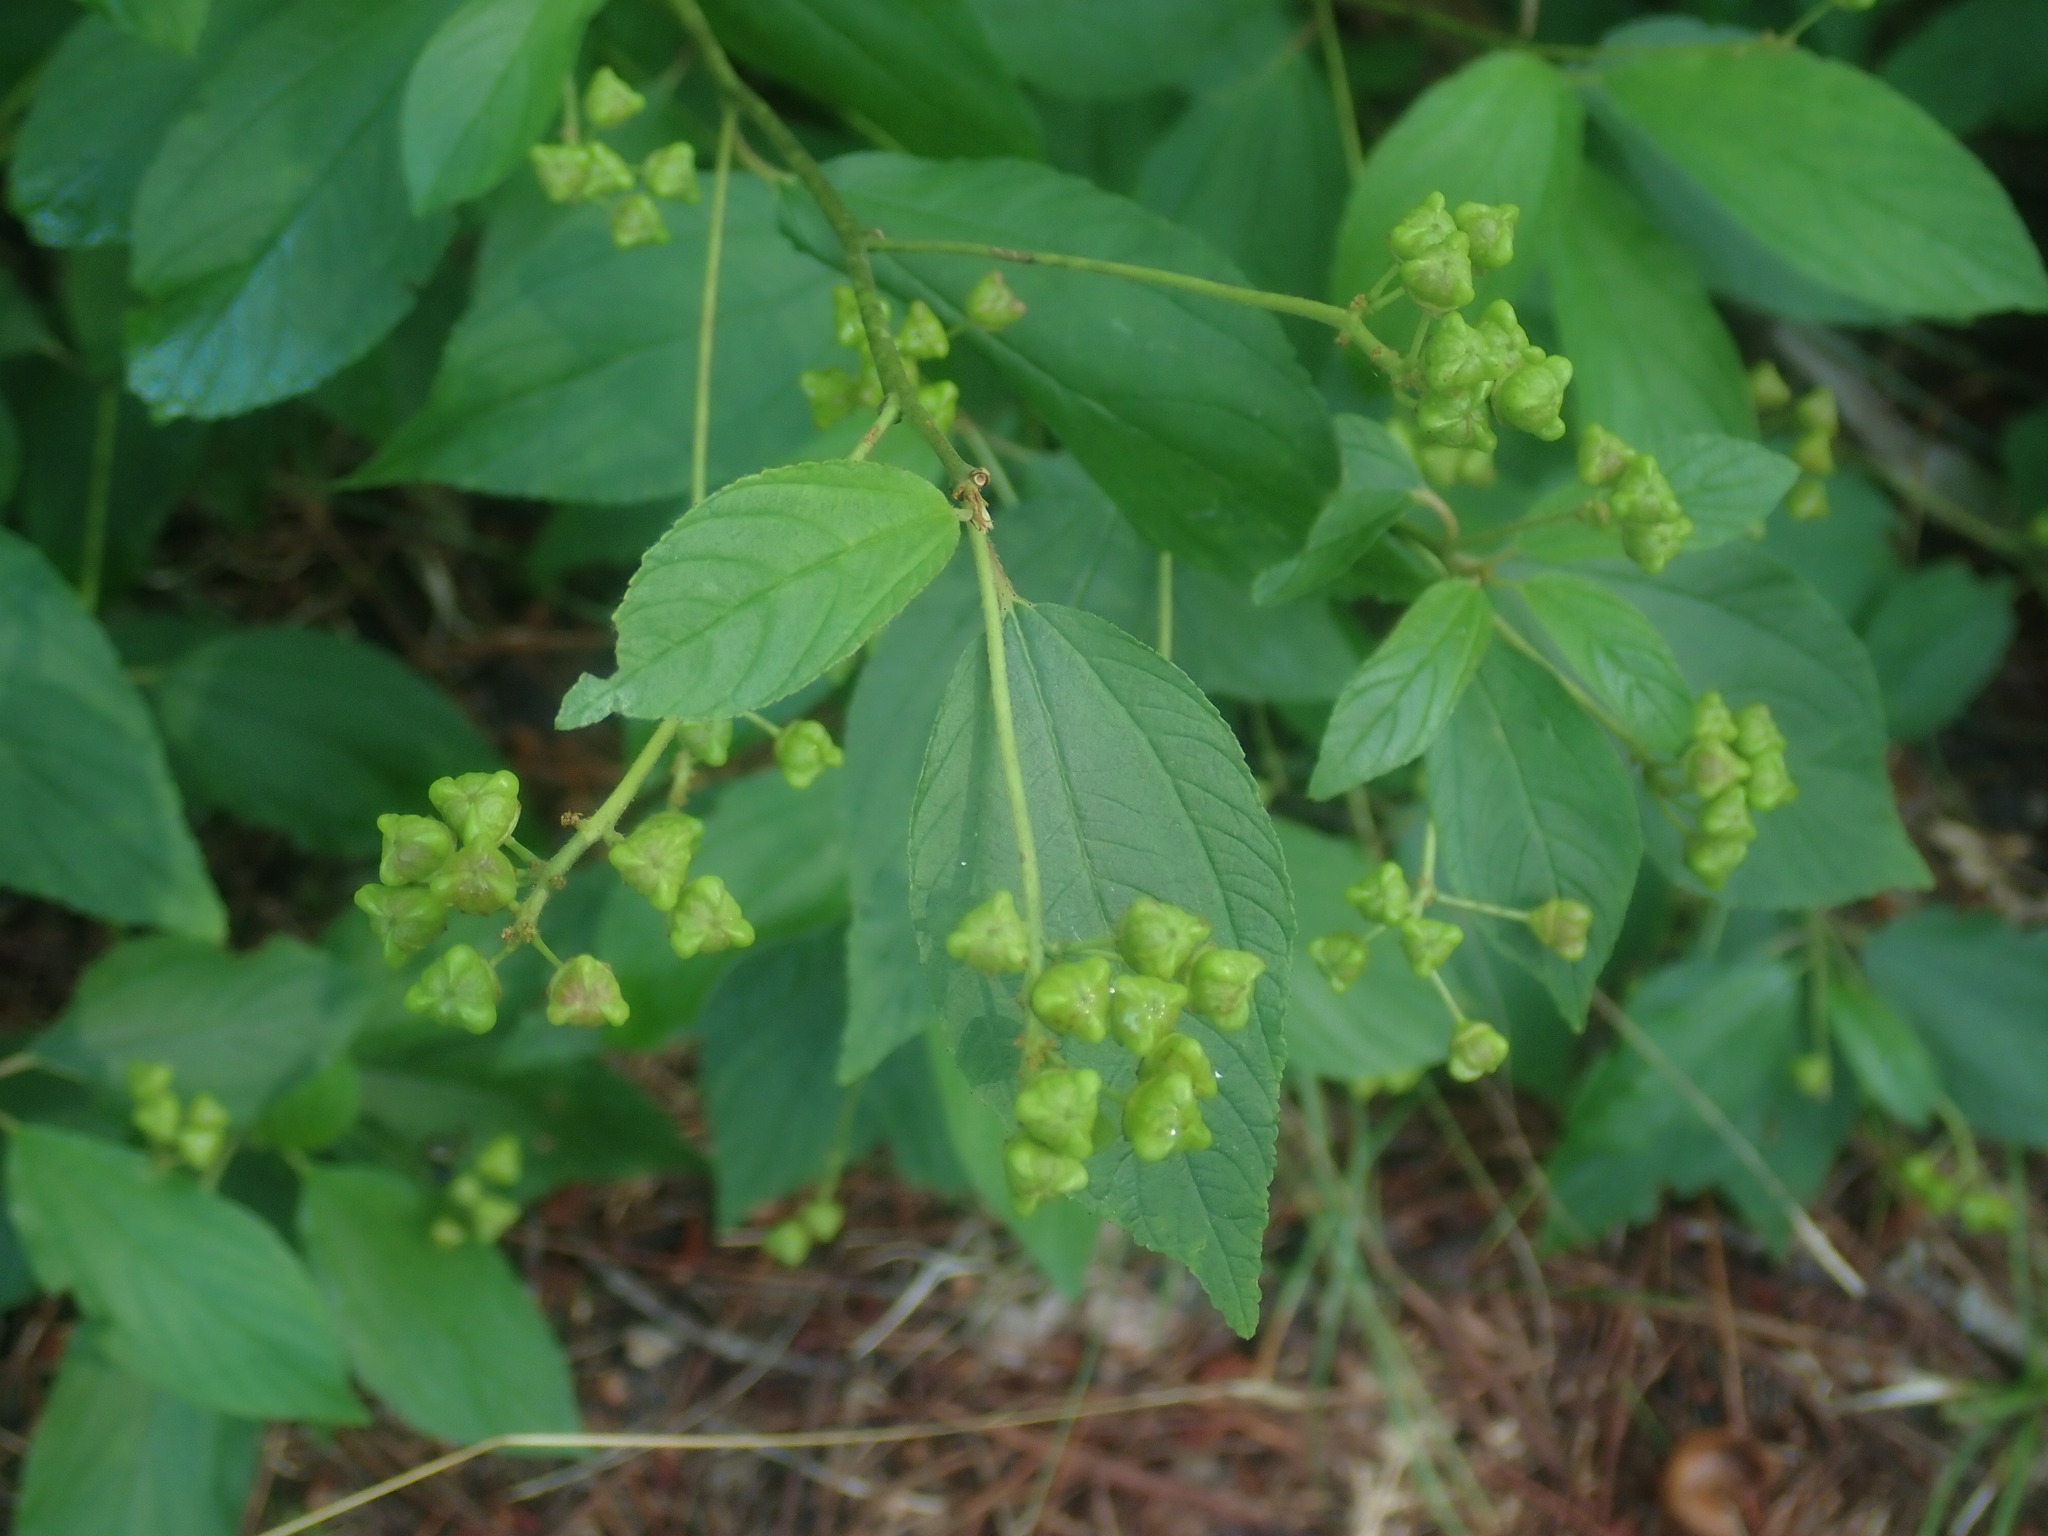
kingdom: Plantae
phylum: Tracheophyta
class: Magnoliopsida
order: Rosales
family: Rhamnaceae
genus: Ceanothus
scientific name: Ceanothus americanus
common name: Redroot
